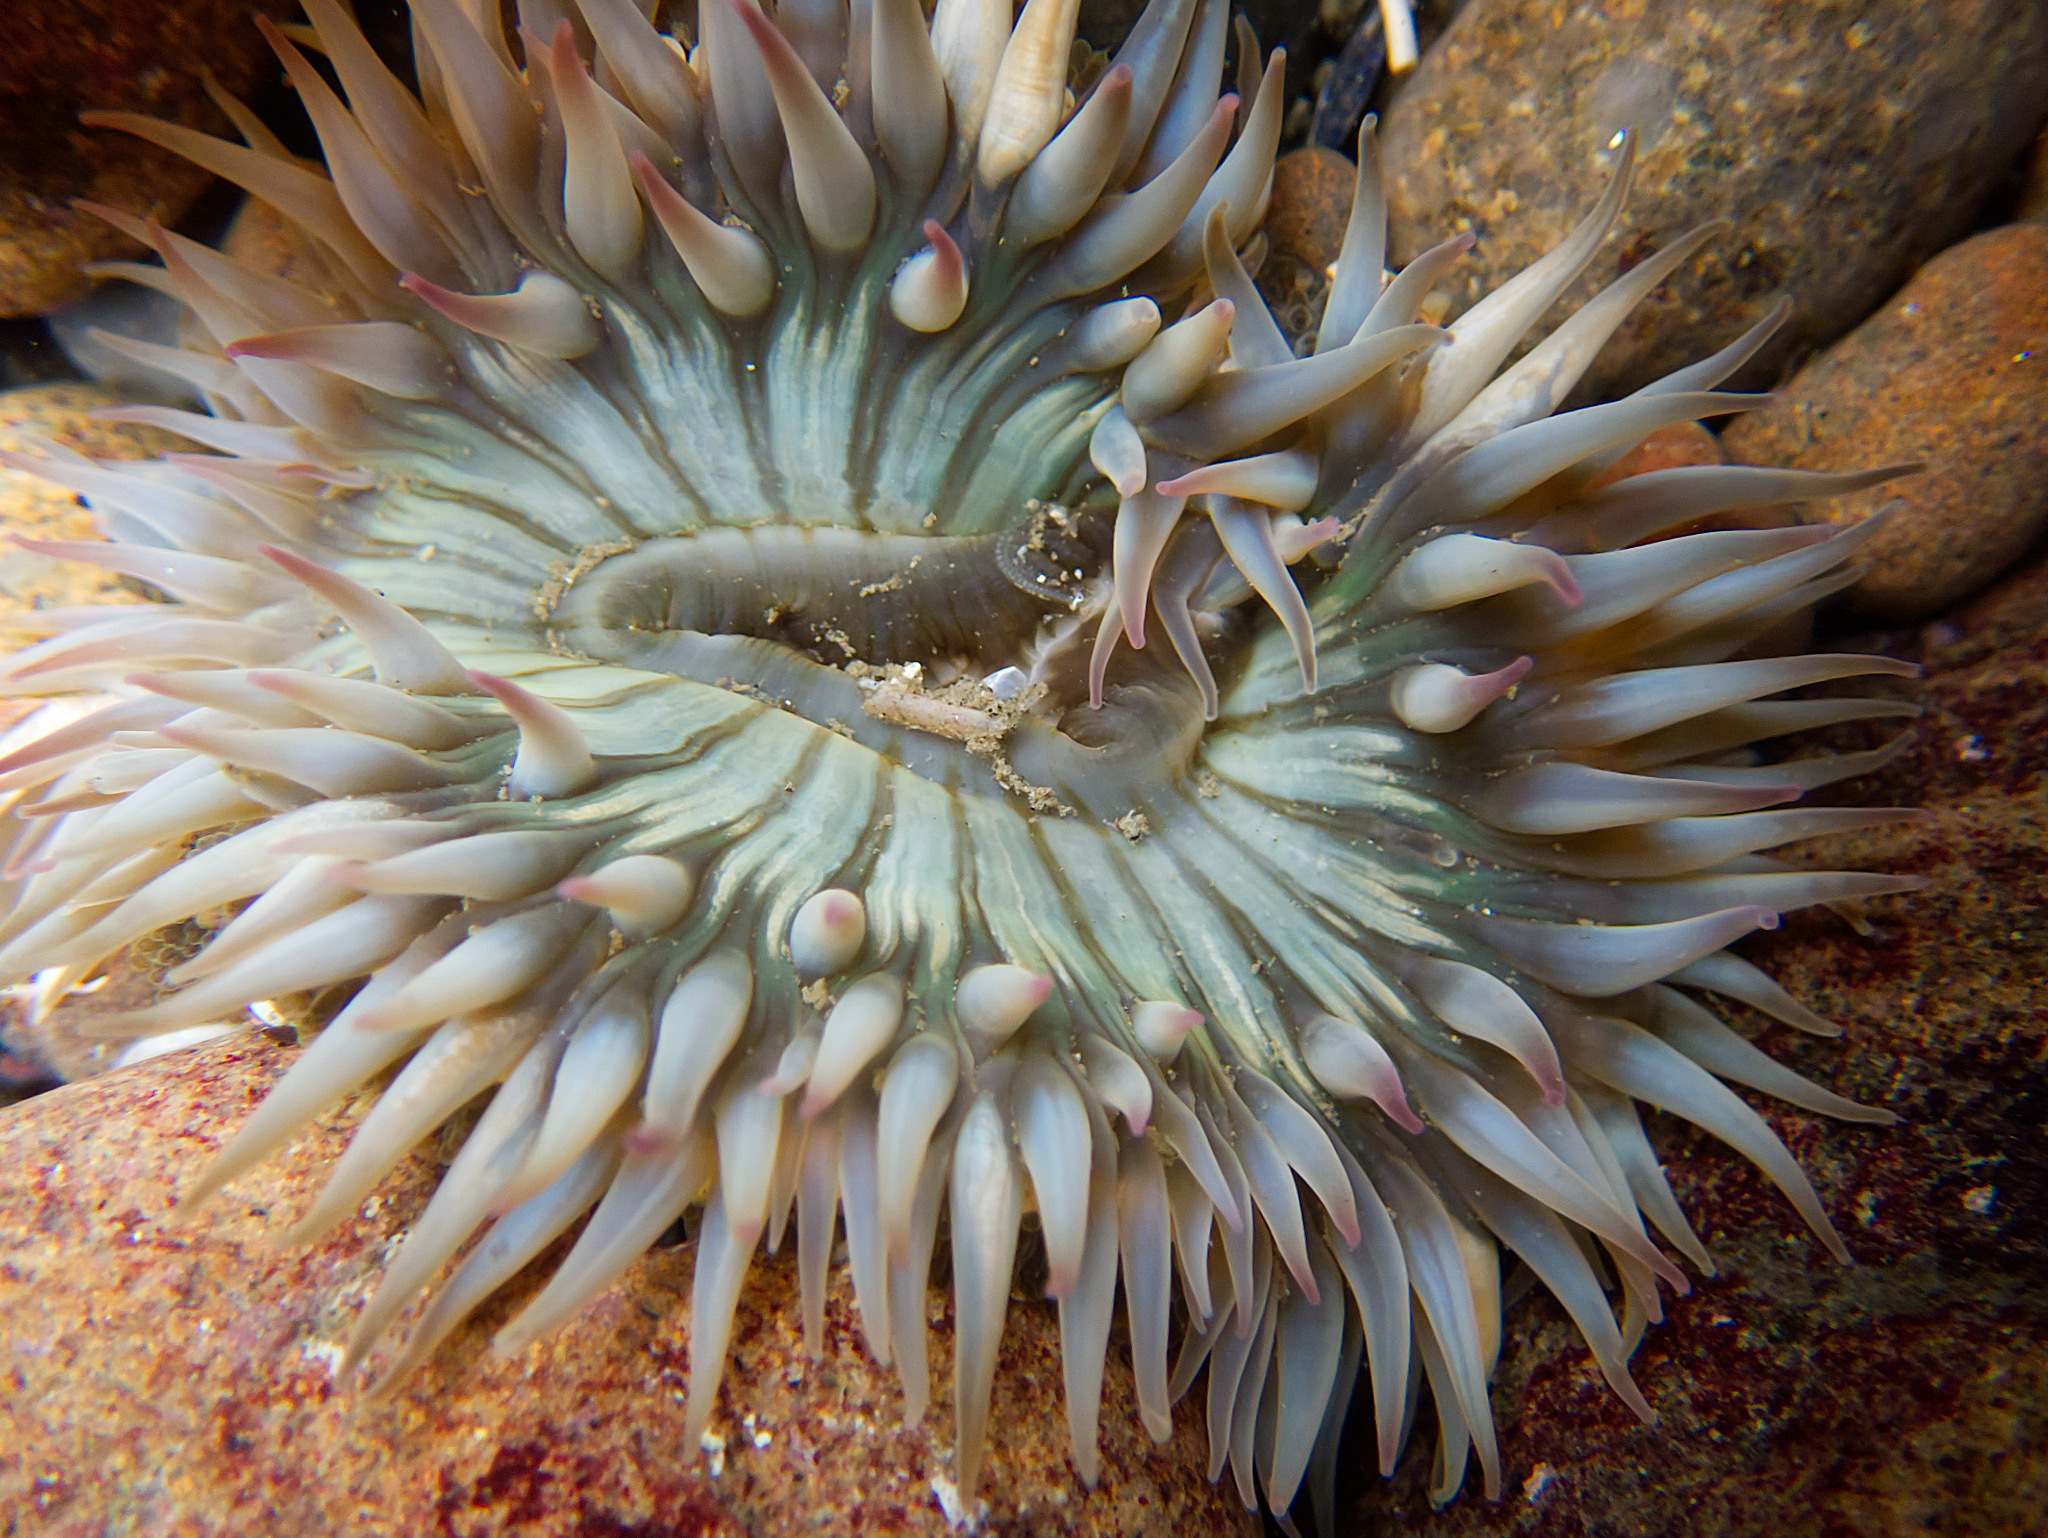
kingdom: Animalia
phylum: Cnidaria
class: Anthozoa
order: Actiniaria
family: Actiniidae
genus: Anthopleura
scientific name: Anthopleura sola
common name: Sun anemone
